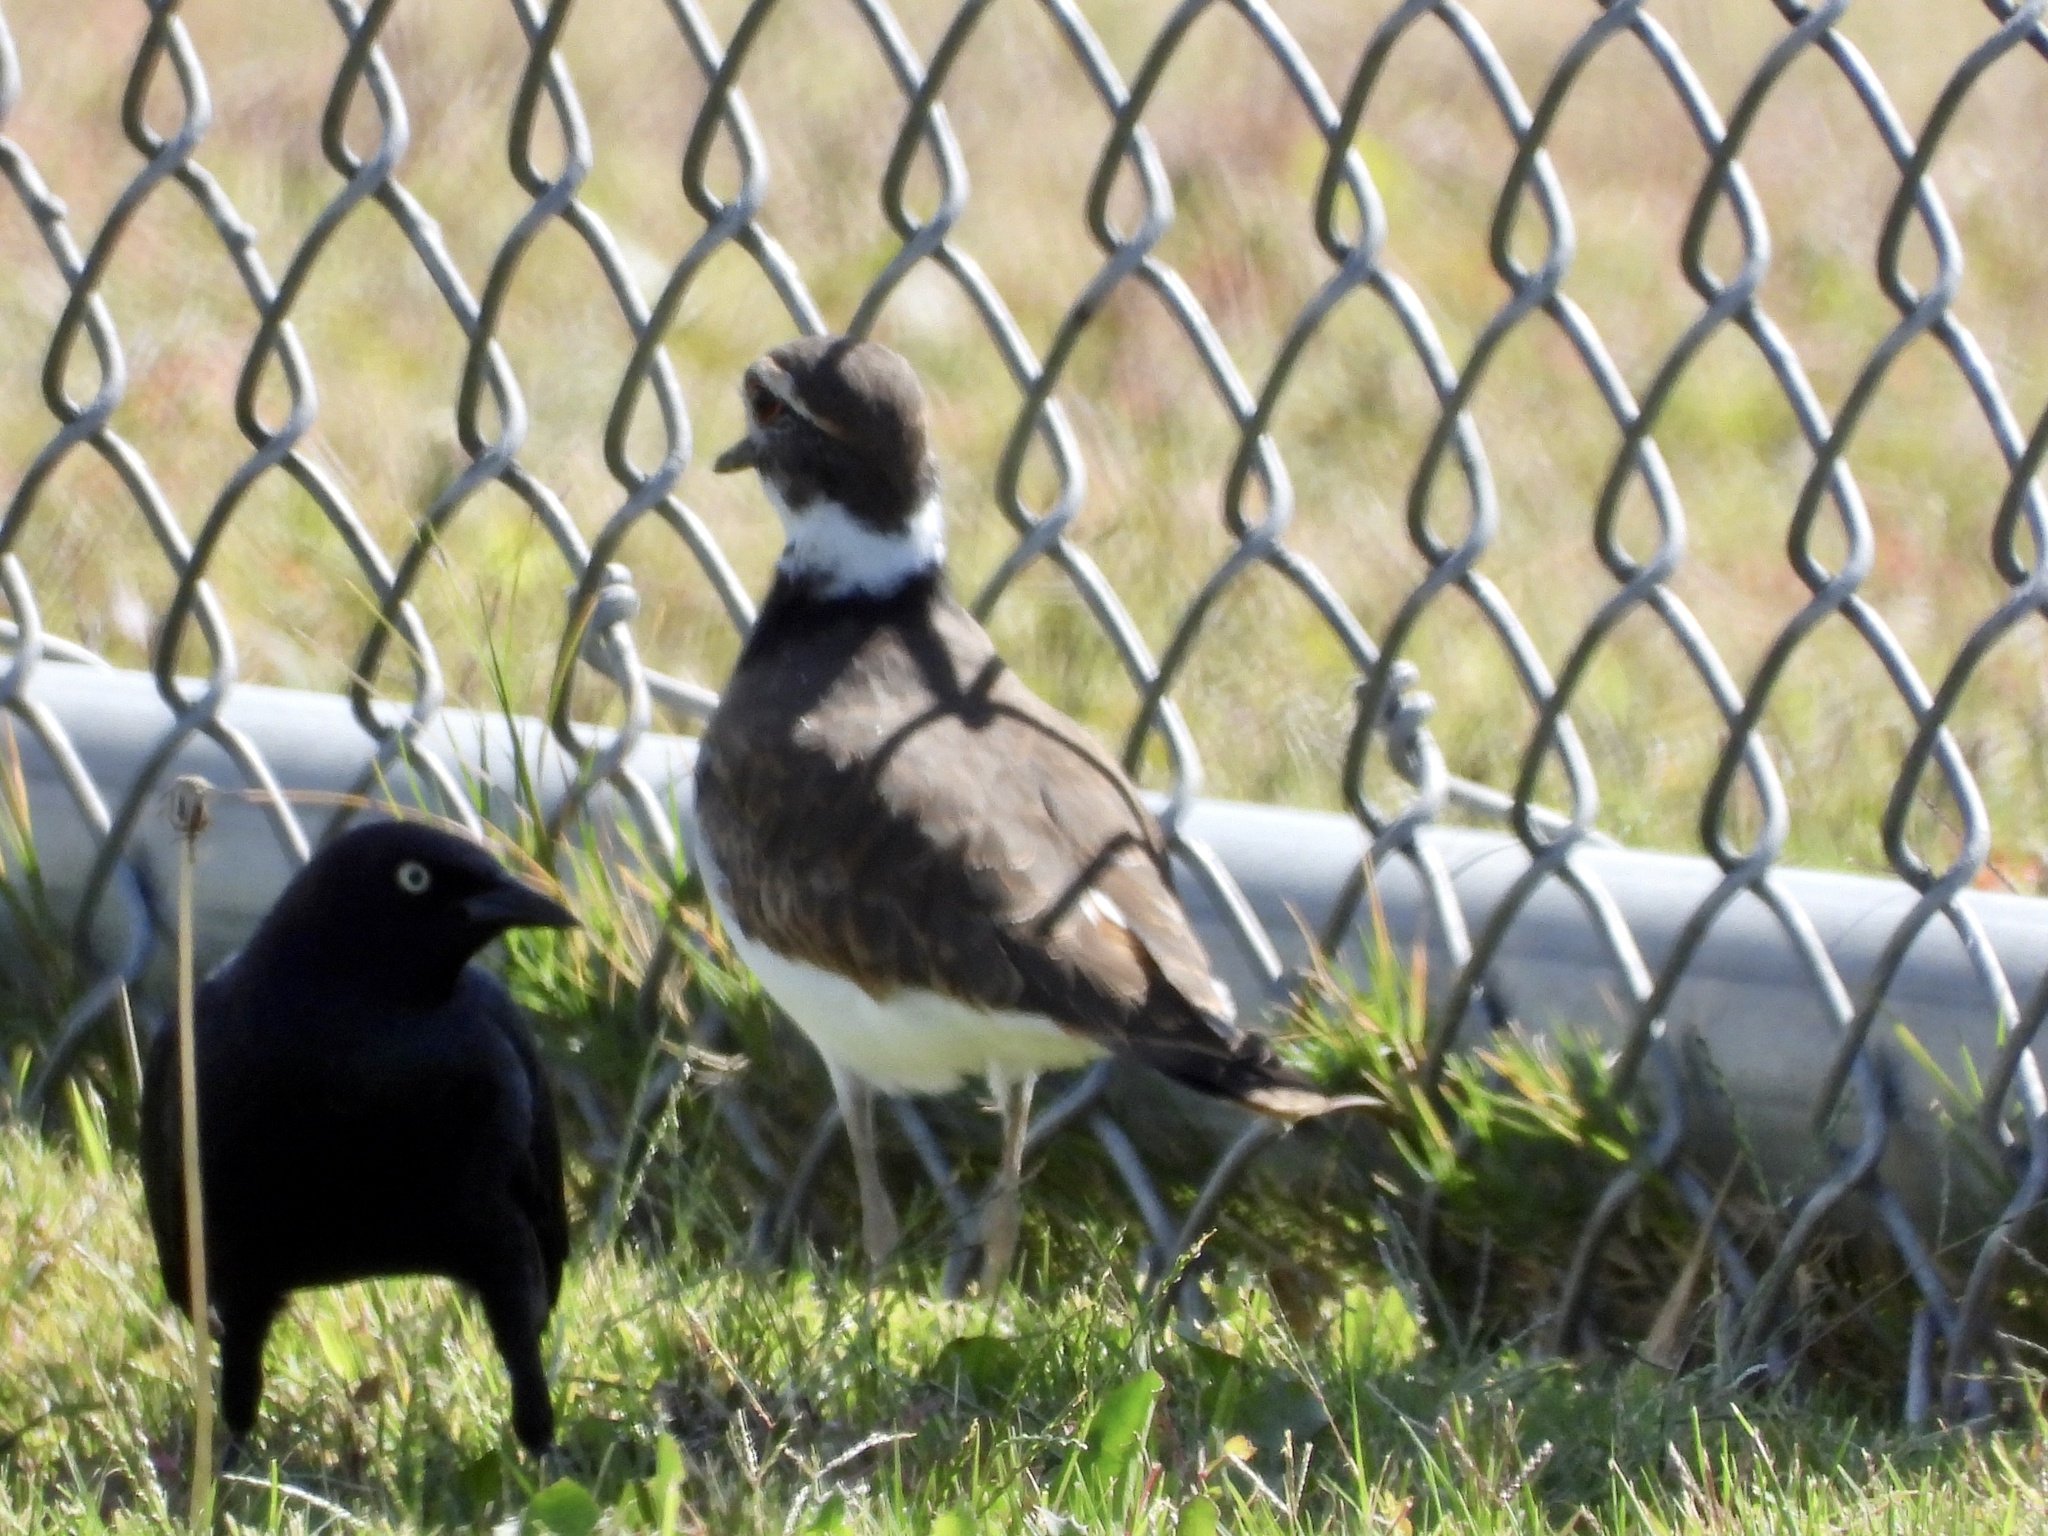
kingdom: Animalia
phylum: Chordata
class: Aves
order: Charadriiformes
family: Charadriidae
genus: Charadrius
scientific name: Charadrius vociferus
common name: Killdeer
